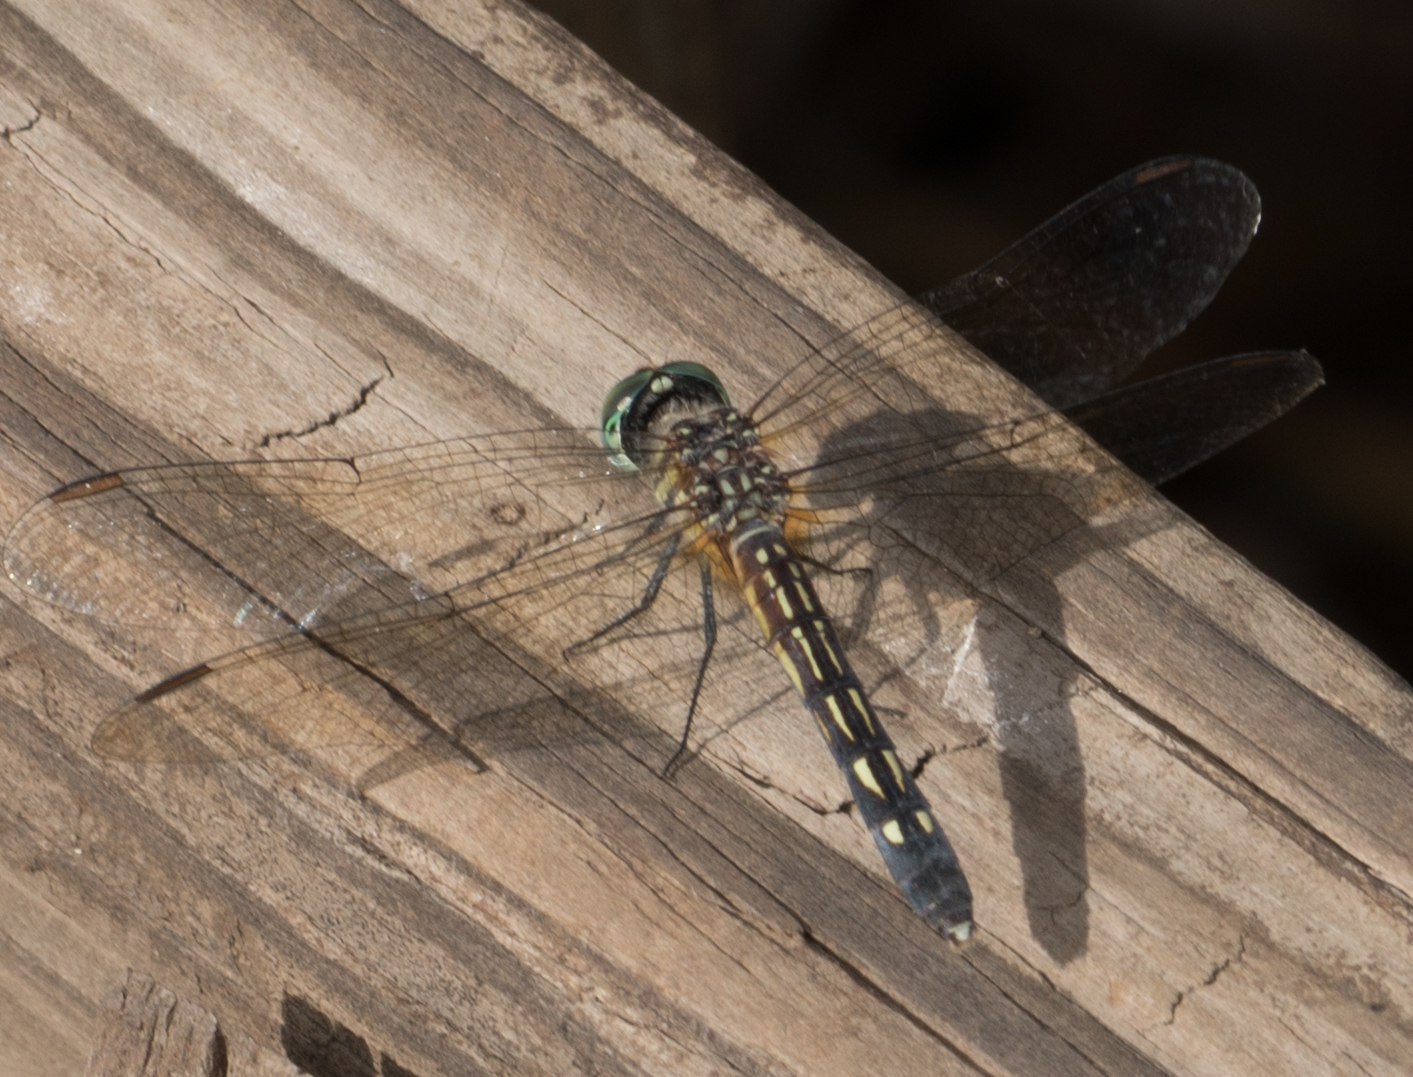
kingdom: Animalia
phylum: Arthropoda
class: Insecta
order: Odonata
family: Libellulidae
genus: Pachydiplax
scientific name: Pachydiplax longipennis
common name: Blue dasher
